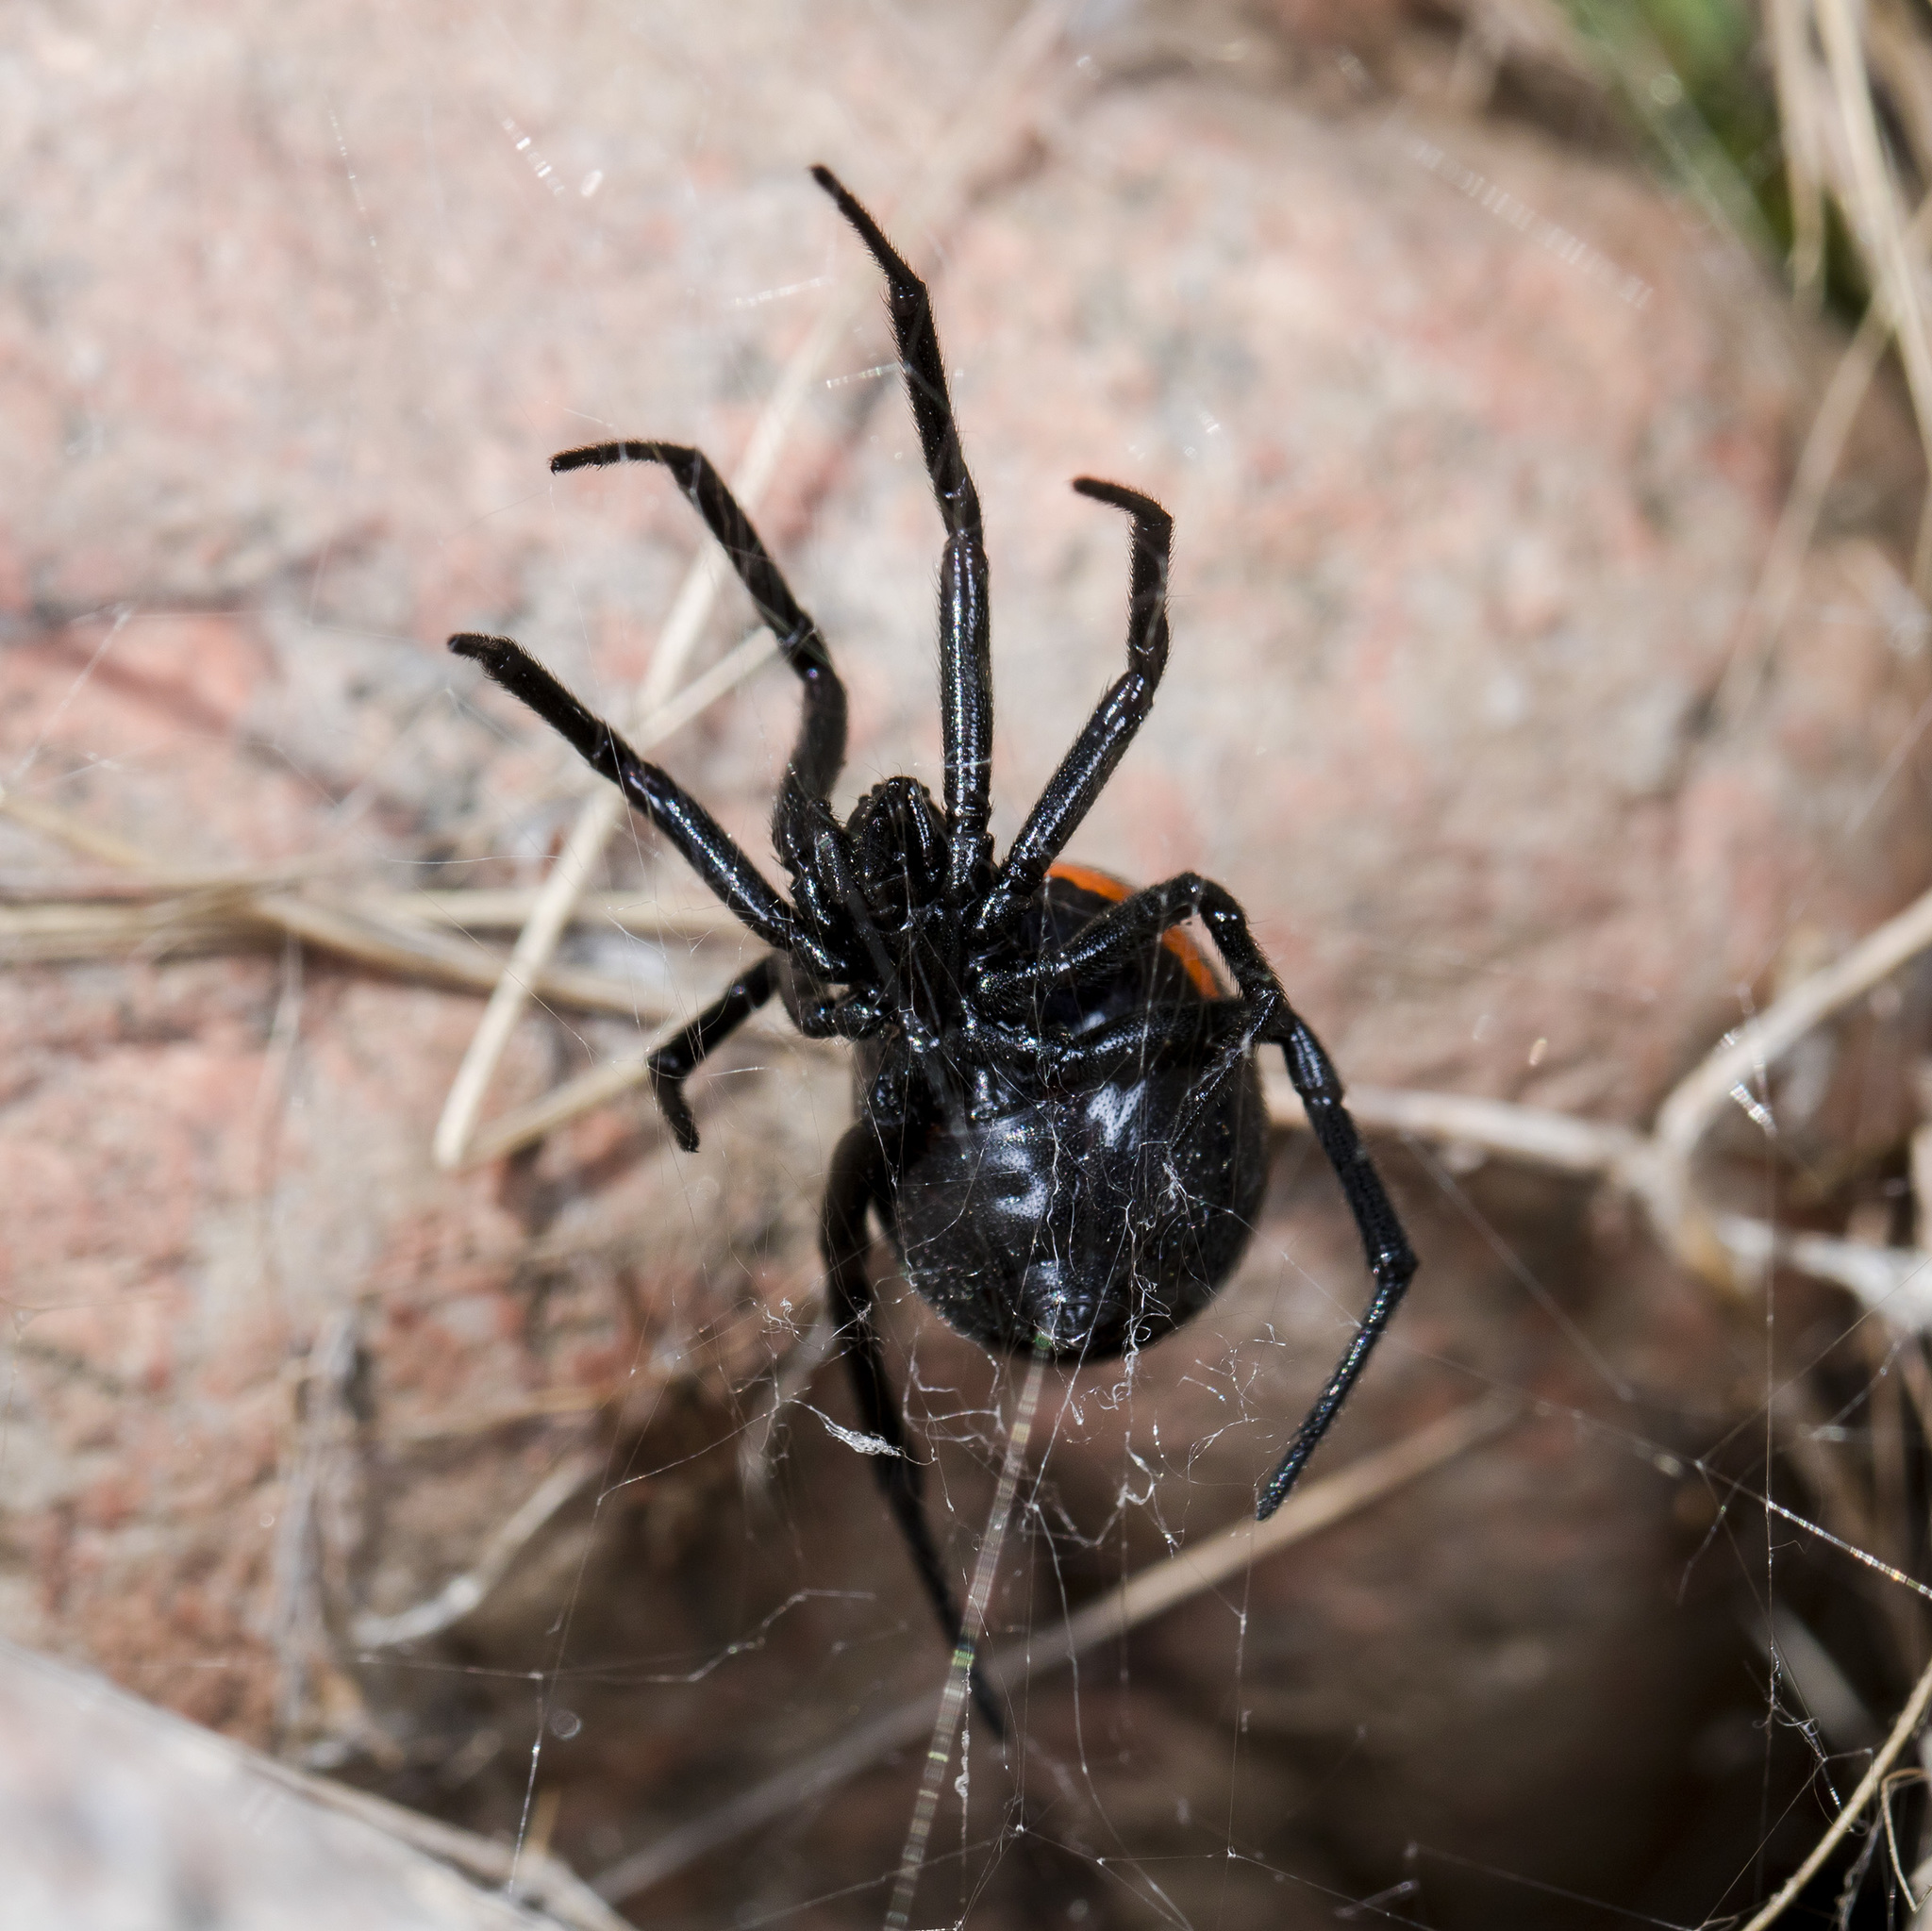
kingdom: Animalia
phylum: Arthropoda
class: Arachnida
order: Araneae
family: Theridiidae
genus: Steatoda
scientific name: Steatoda paykulliana
